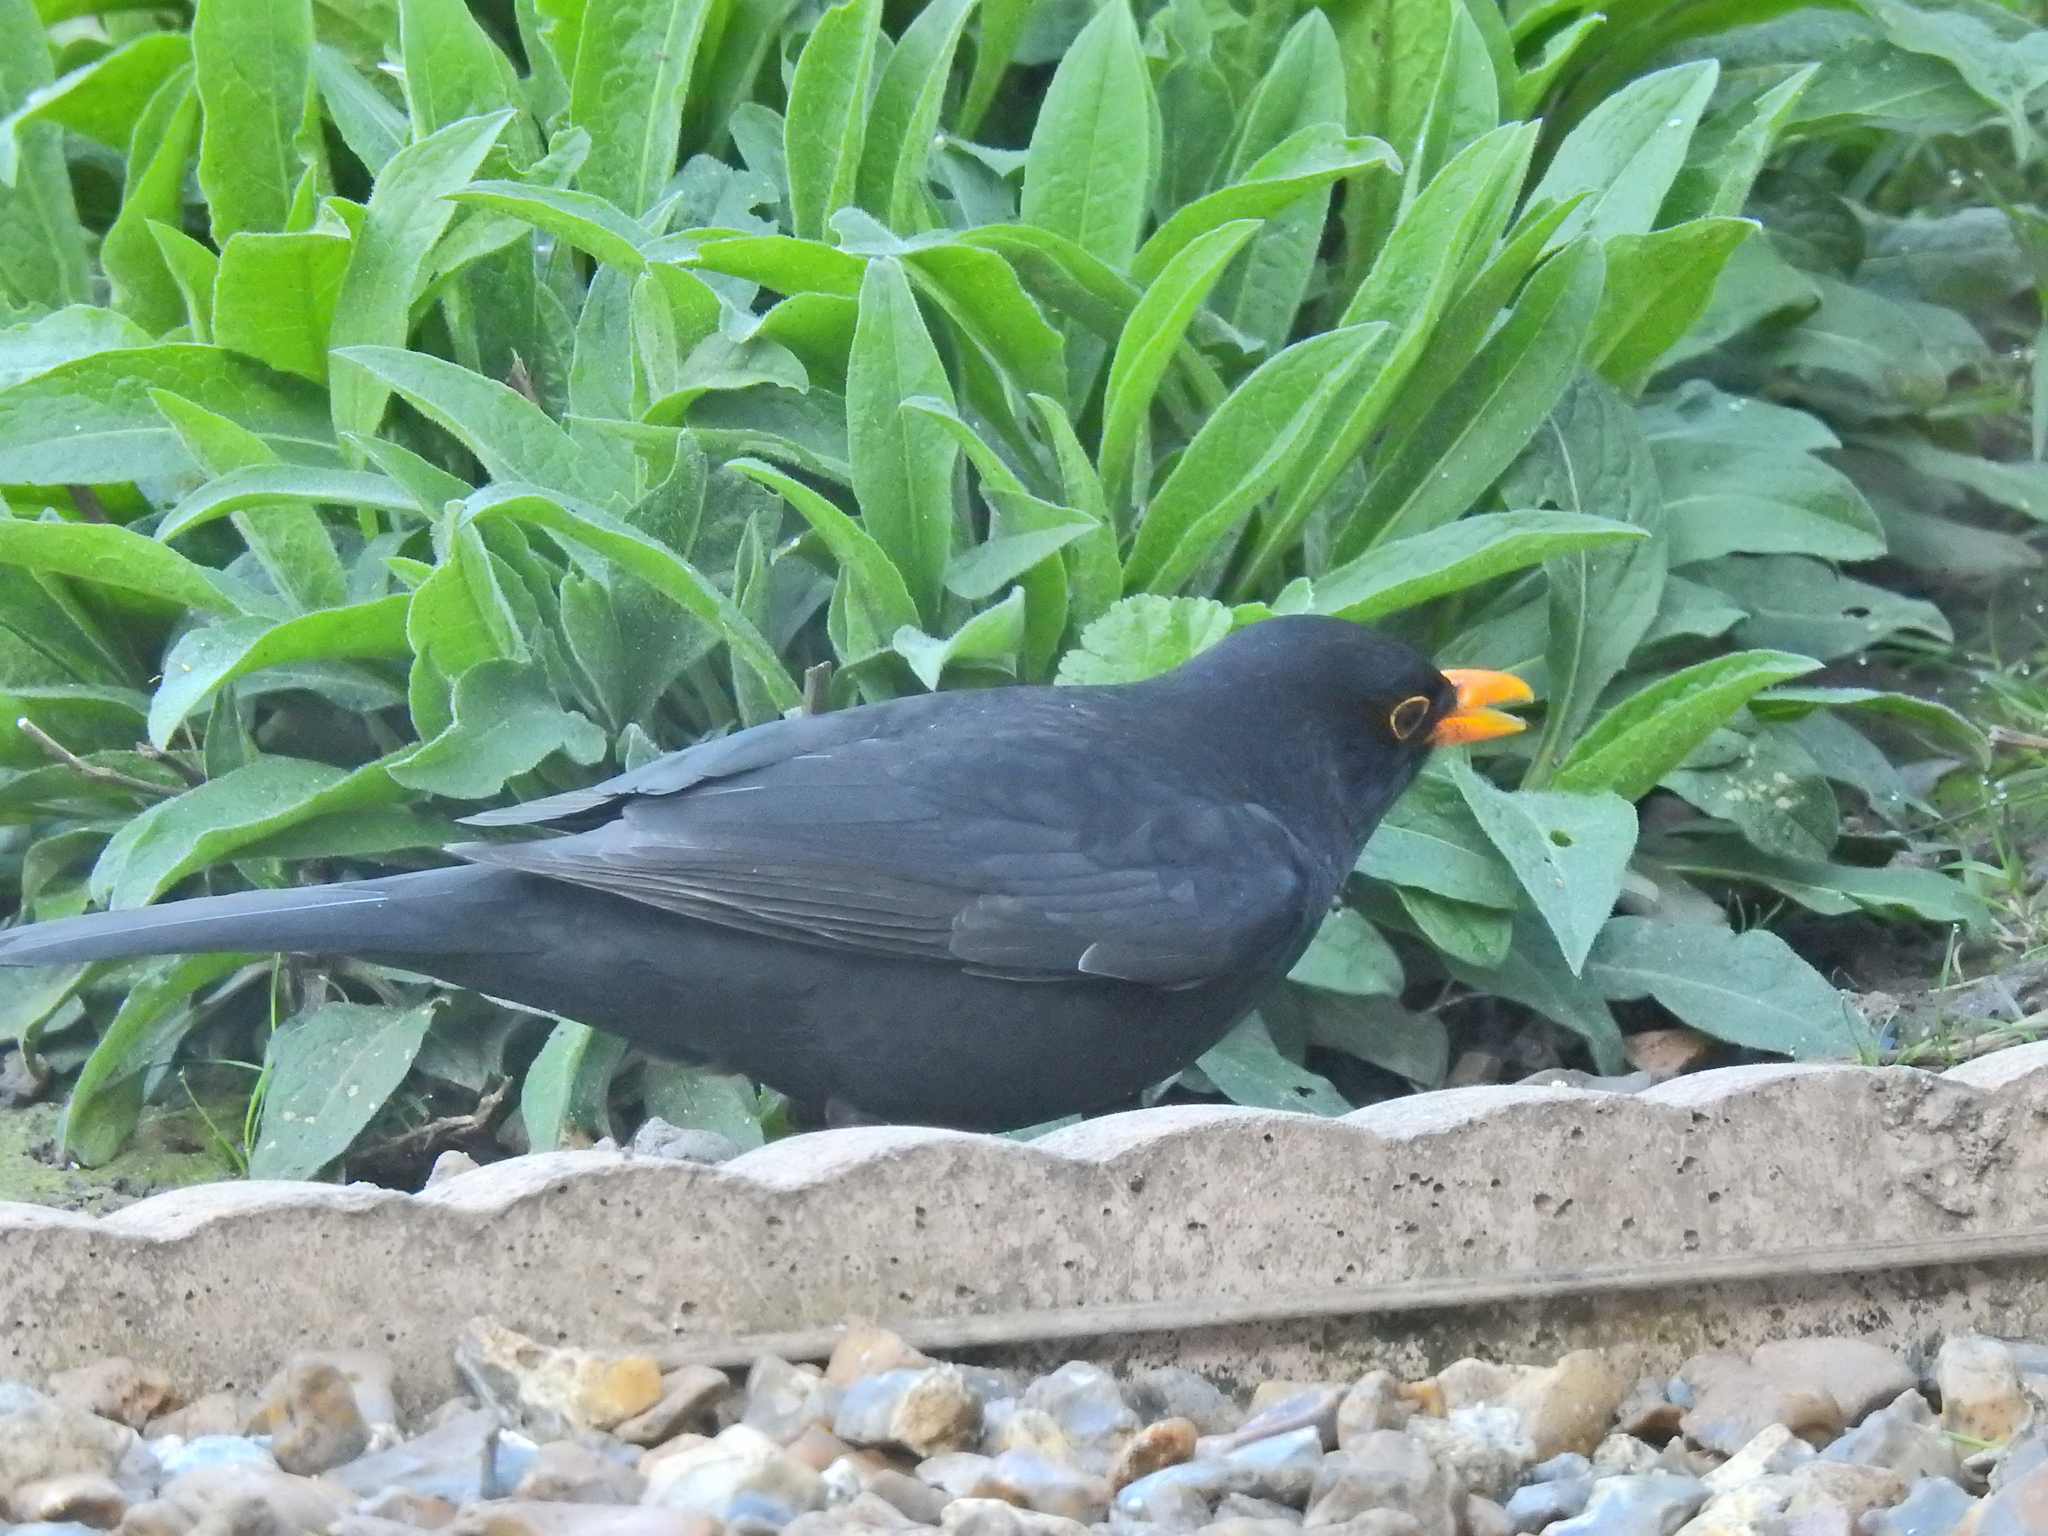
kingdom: Animalia
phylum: Chordata
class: Aves
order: Passeriformes
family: Turdidae
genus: Turdus
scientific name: Turdus merula
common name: Common blackbird
